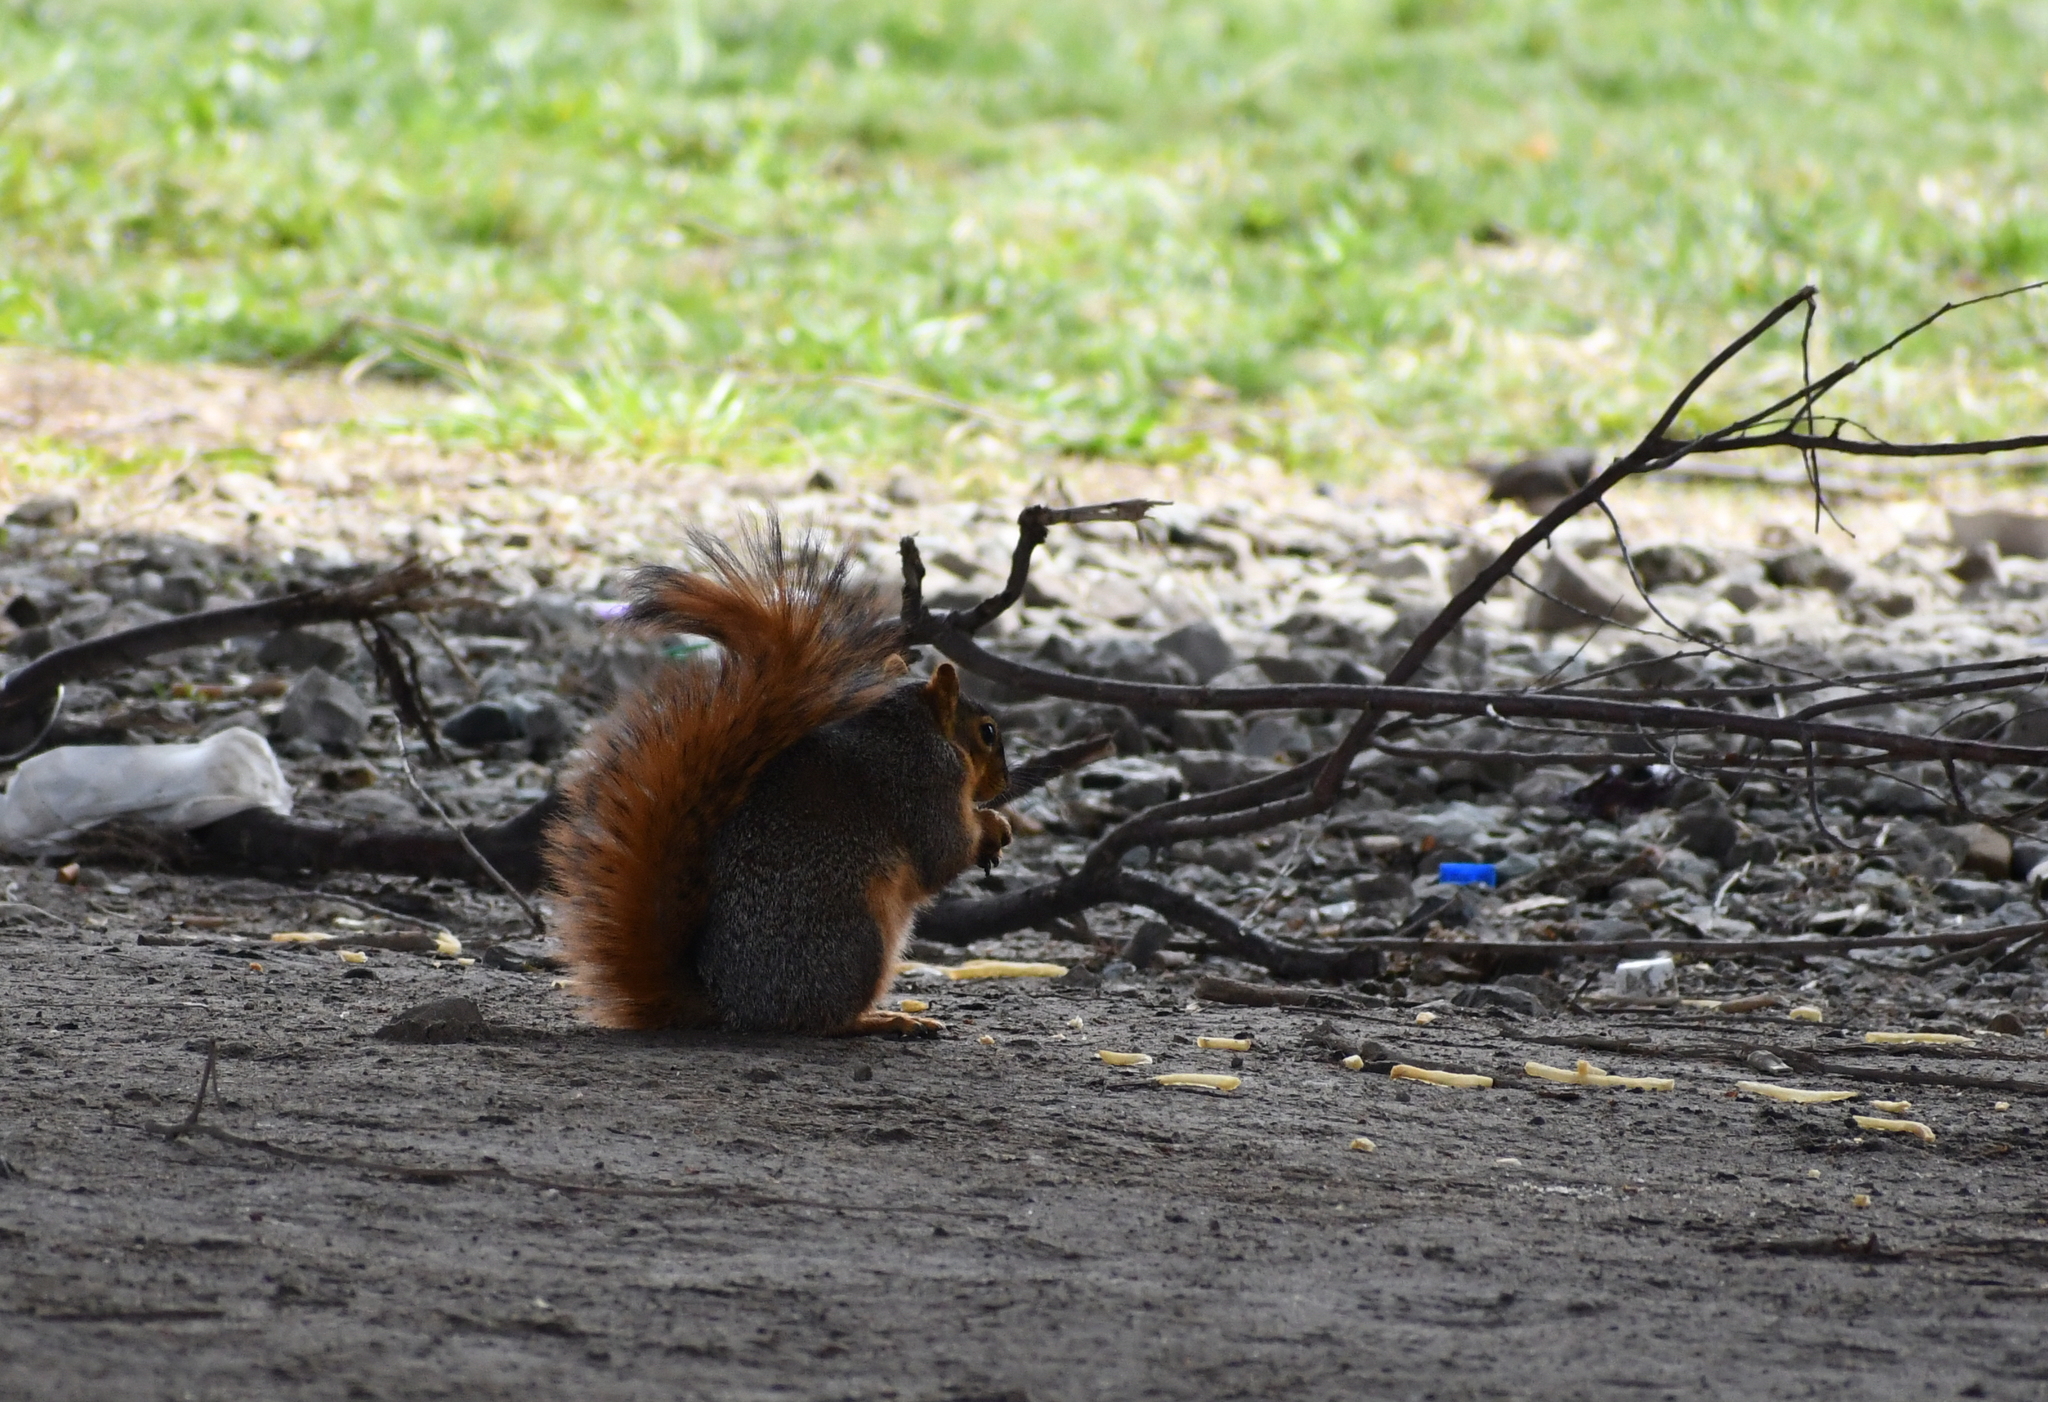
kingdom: Animalia
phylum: Chordata
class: Mammalia
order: Rodentia
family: Sciuridae
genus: Sciurus
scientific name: Sciurus niger
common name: Fox squirrel
